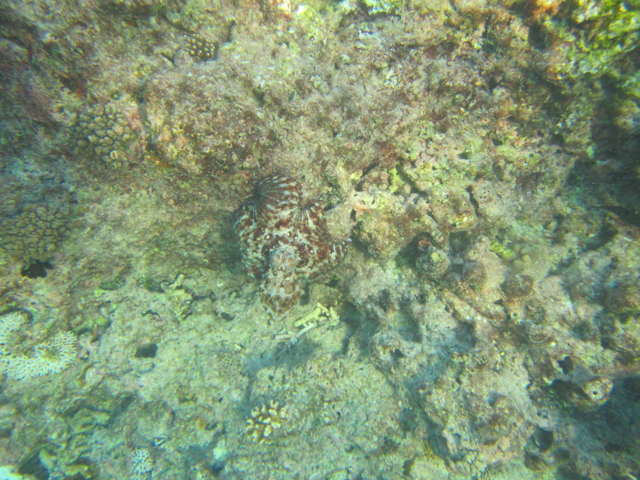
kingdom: Animalia
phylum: Mollusca
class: Cephalopoda
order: Octopoda
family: Octopodidae
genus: Octopus
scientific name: Octopus cyanea
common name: Cyane's octopus
